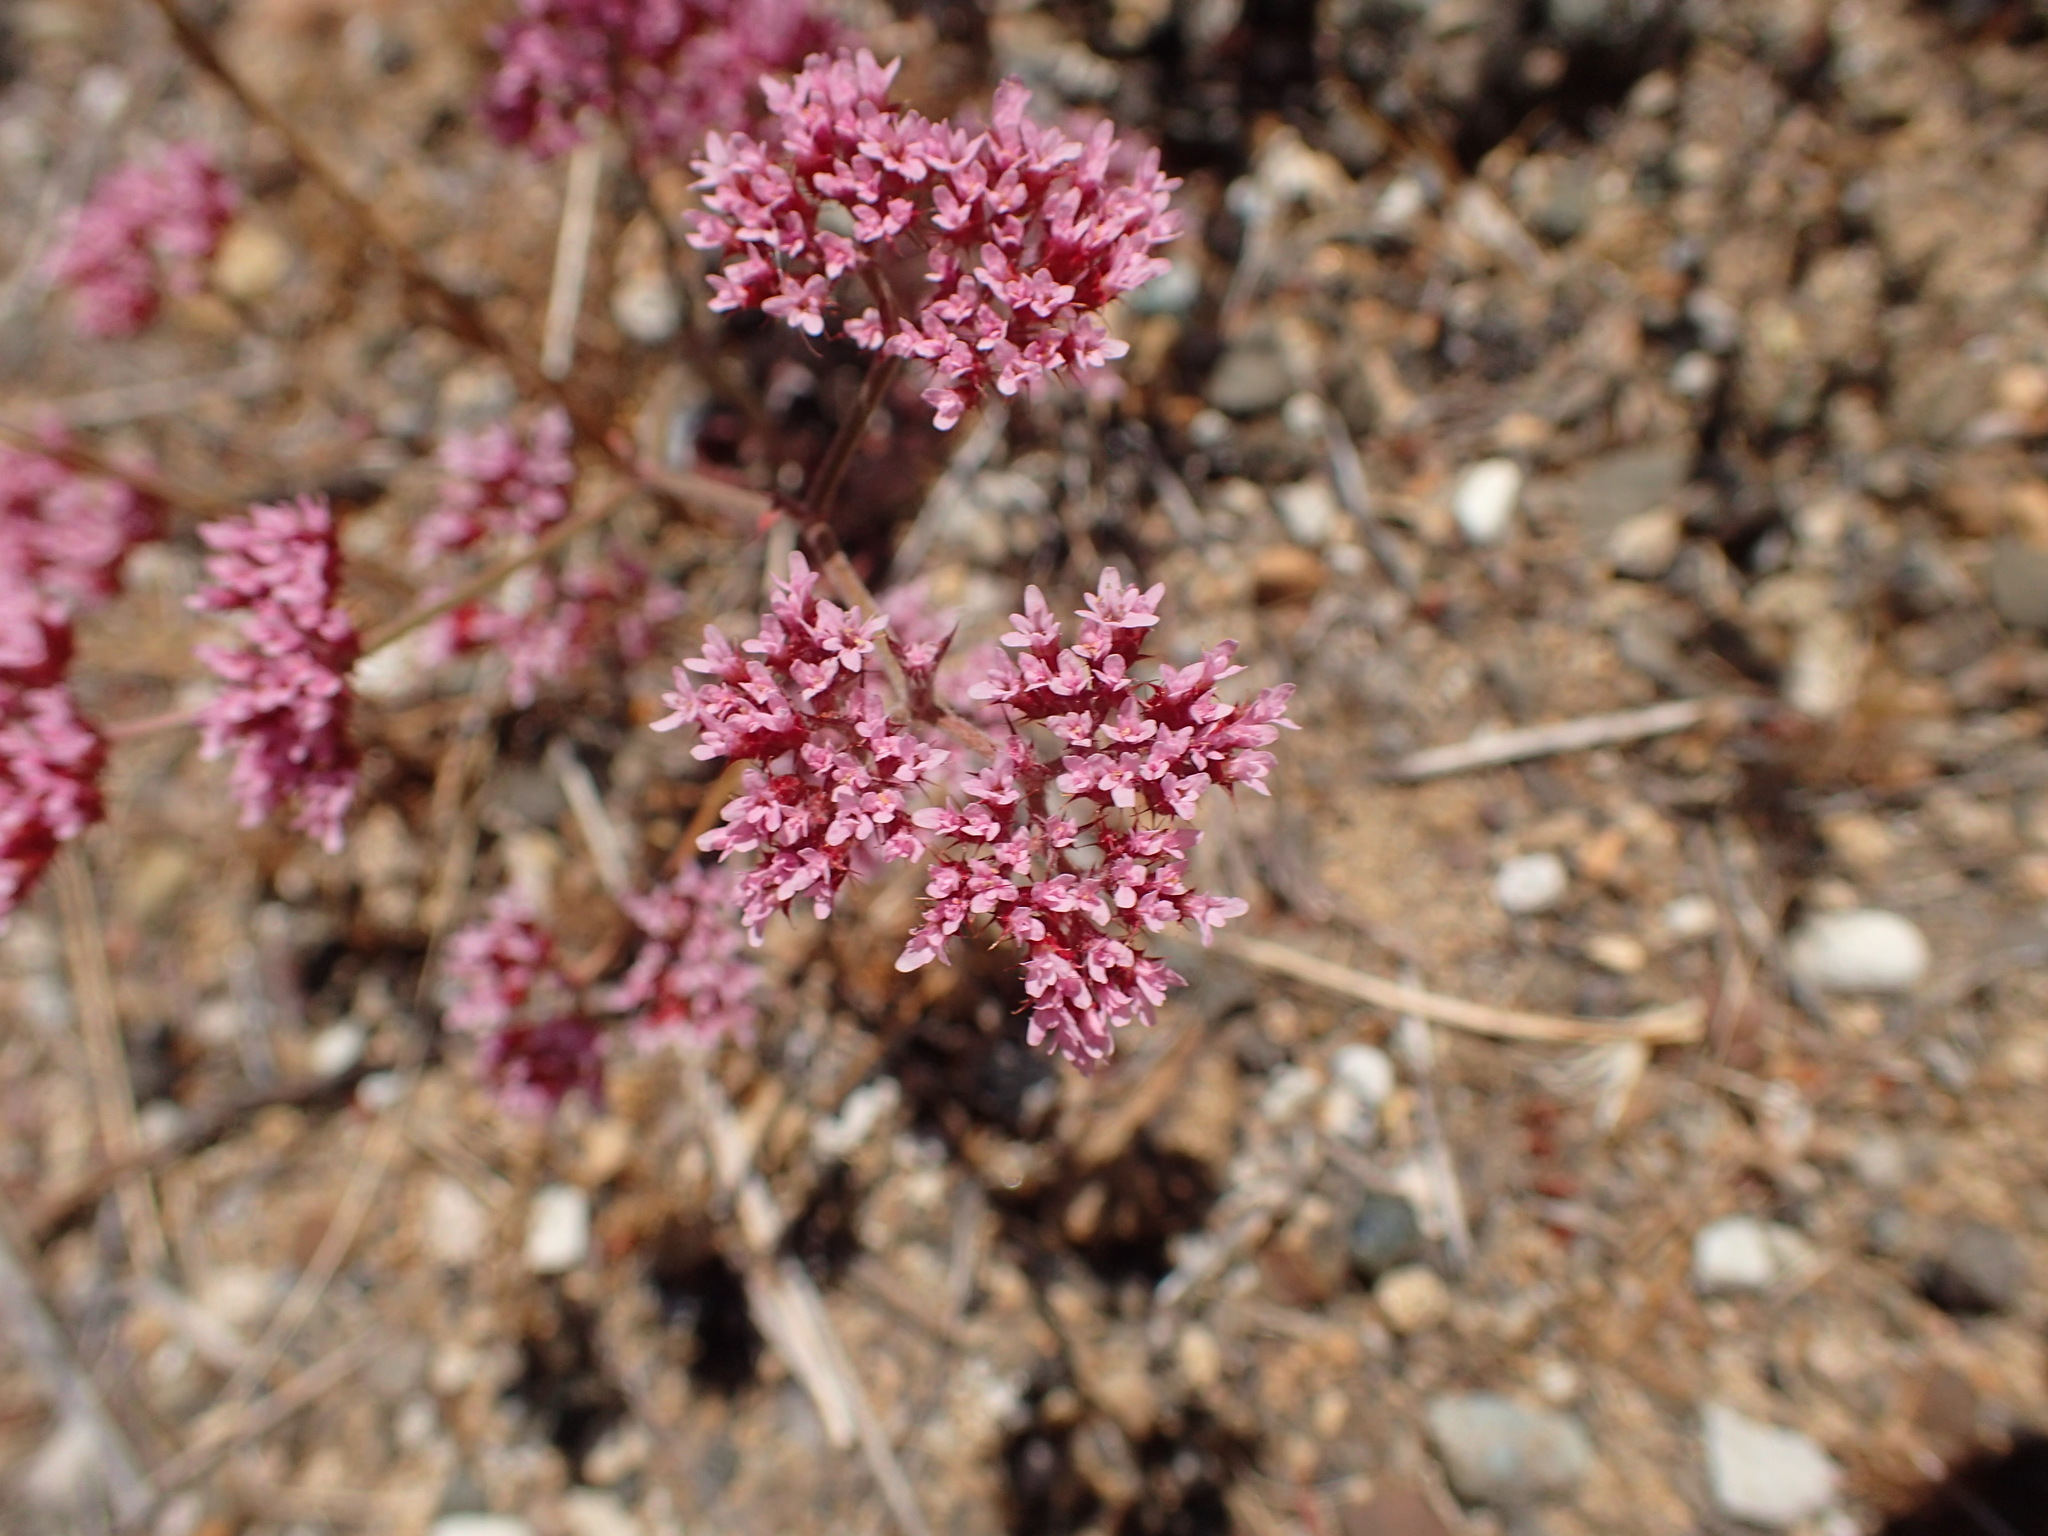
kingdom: Plantae
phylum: Tracheophyta
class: Magnoliopsida
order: Caryophyllales
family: Polygonaceae
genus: Chorizanthe
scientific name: Chorizanthe staticoides
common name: Turkish rugging
